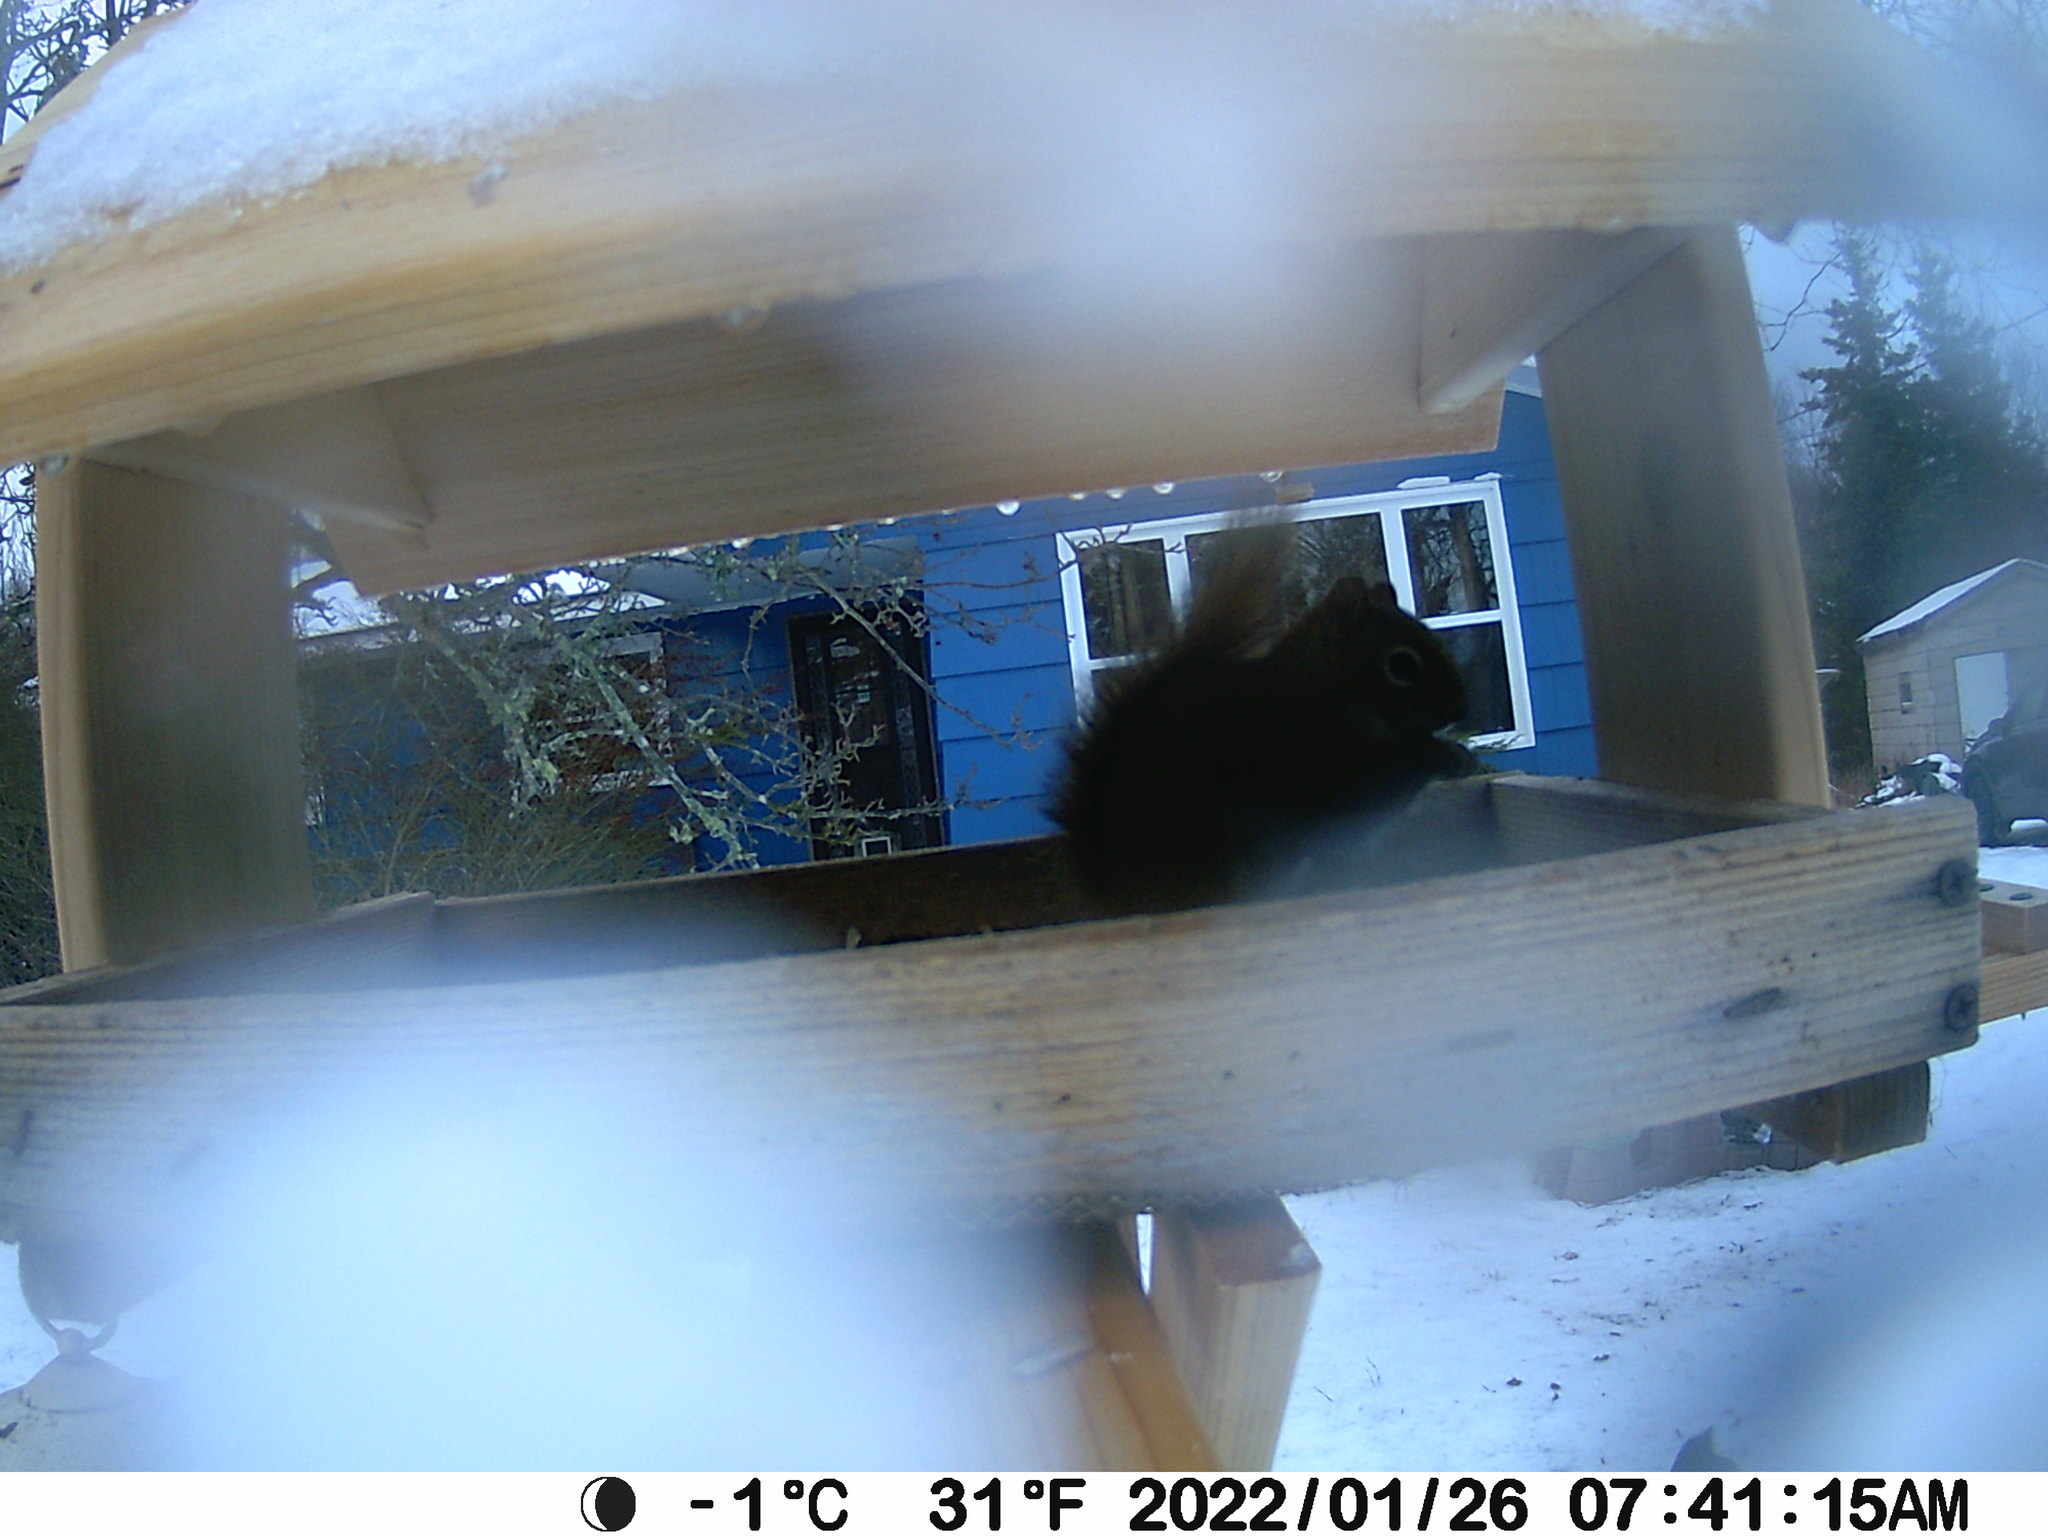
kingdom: Animalia
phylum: Chordata
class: Mammalia
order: Rodentia
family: Sciuridae
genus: Tamiasciurus
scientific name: Tamiasciurus hudsonicus
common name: Red squirrel
